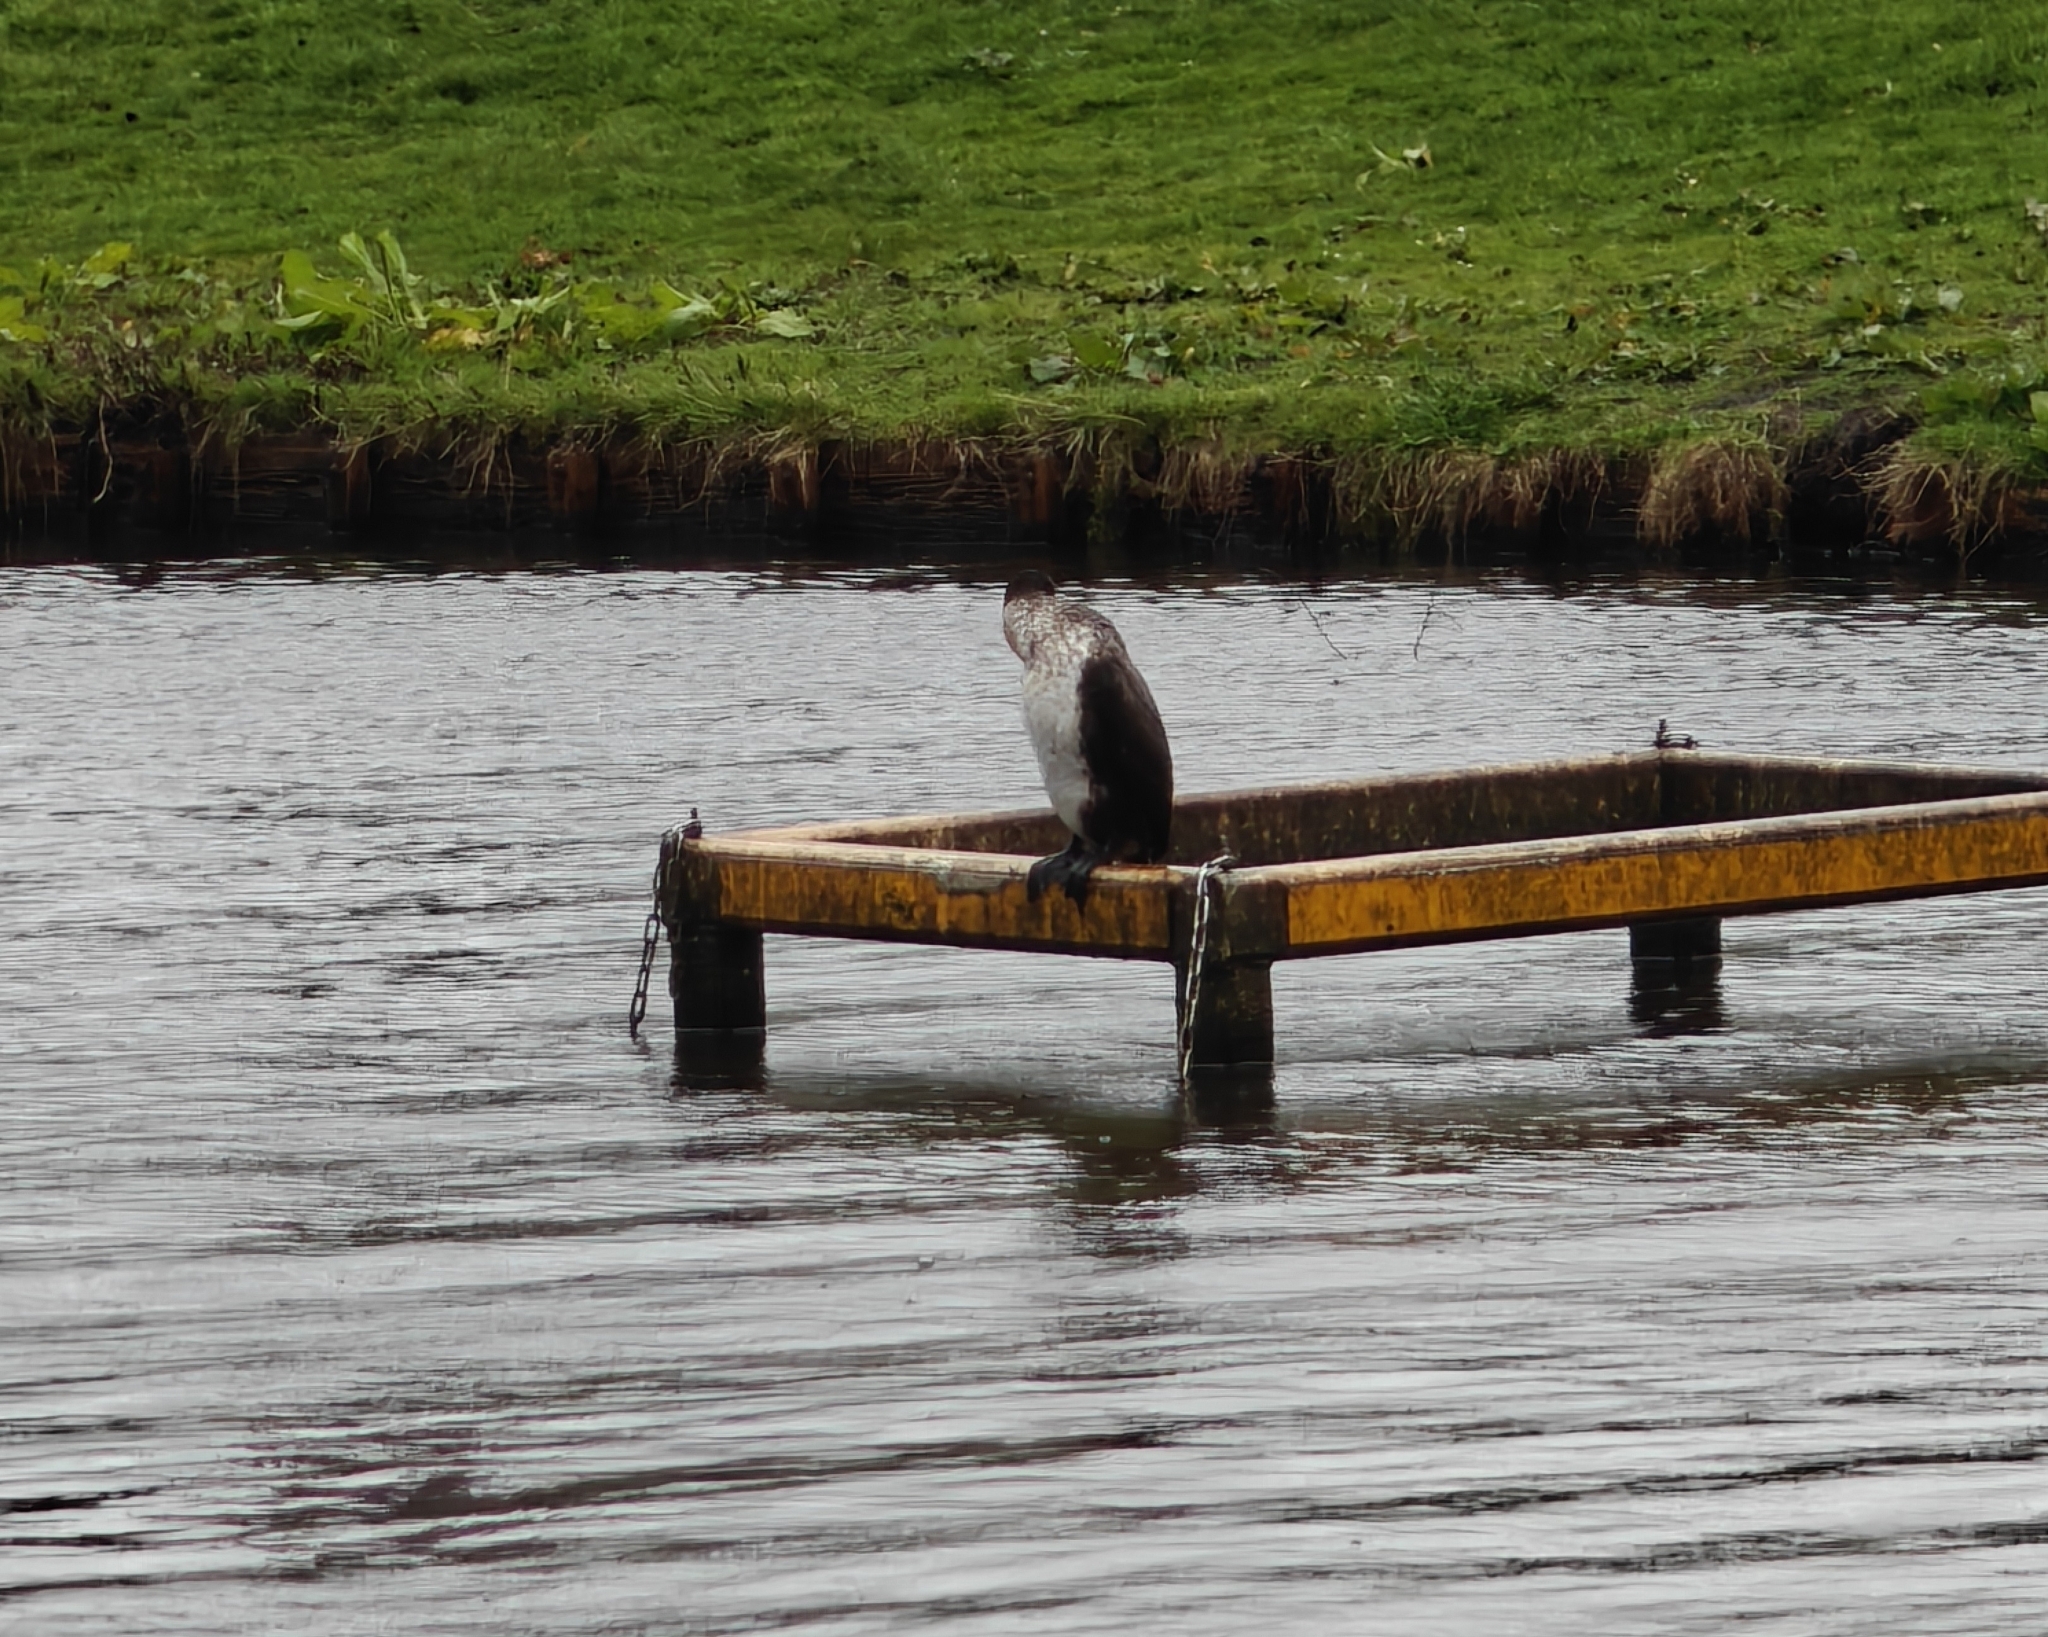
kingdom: Animalia
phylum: Chordata
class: Aves
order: Suliformes
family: Phalacrocoracidae
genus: Phalacrocorax
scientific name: Phalacrocorax carbo
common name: Great cormorant
